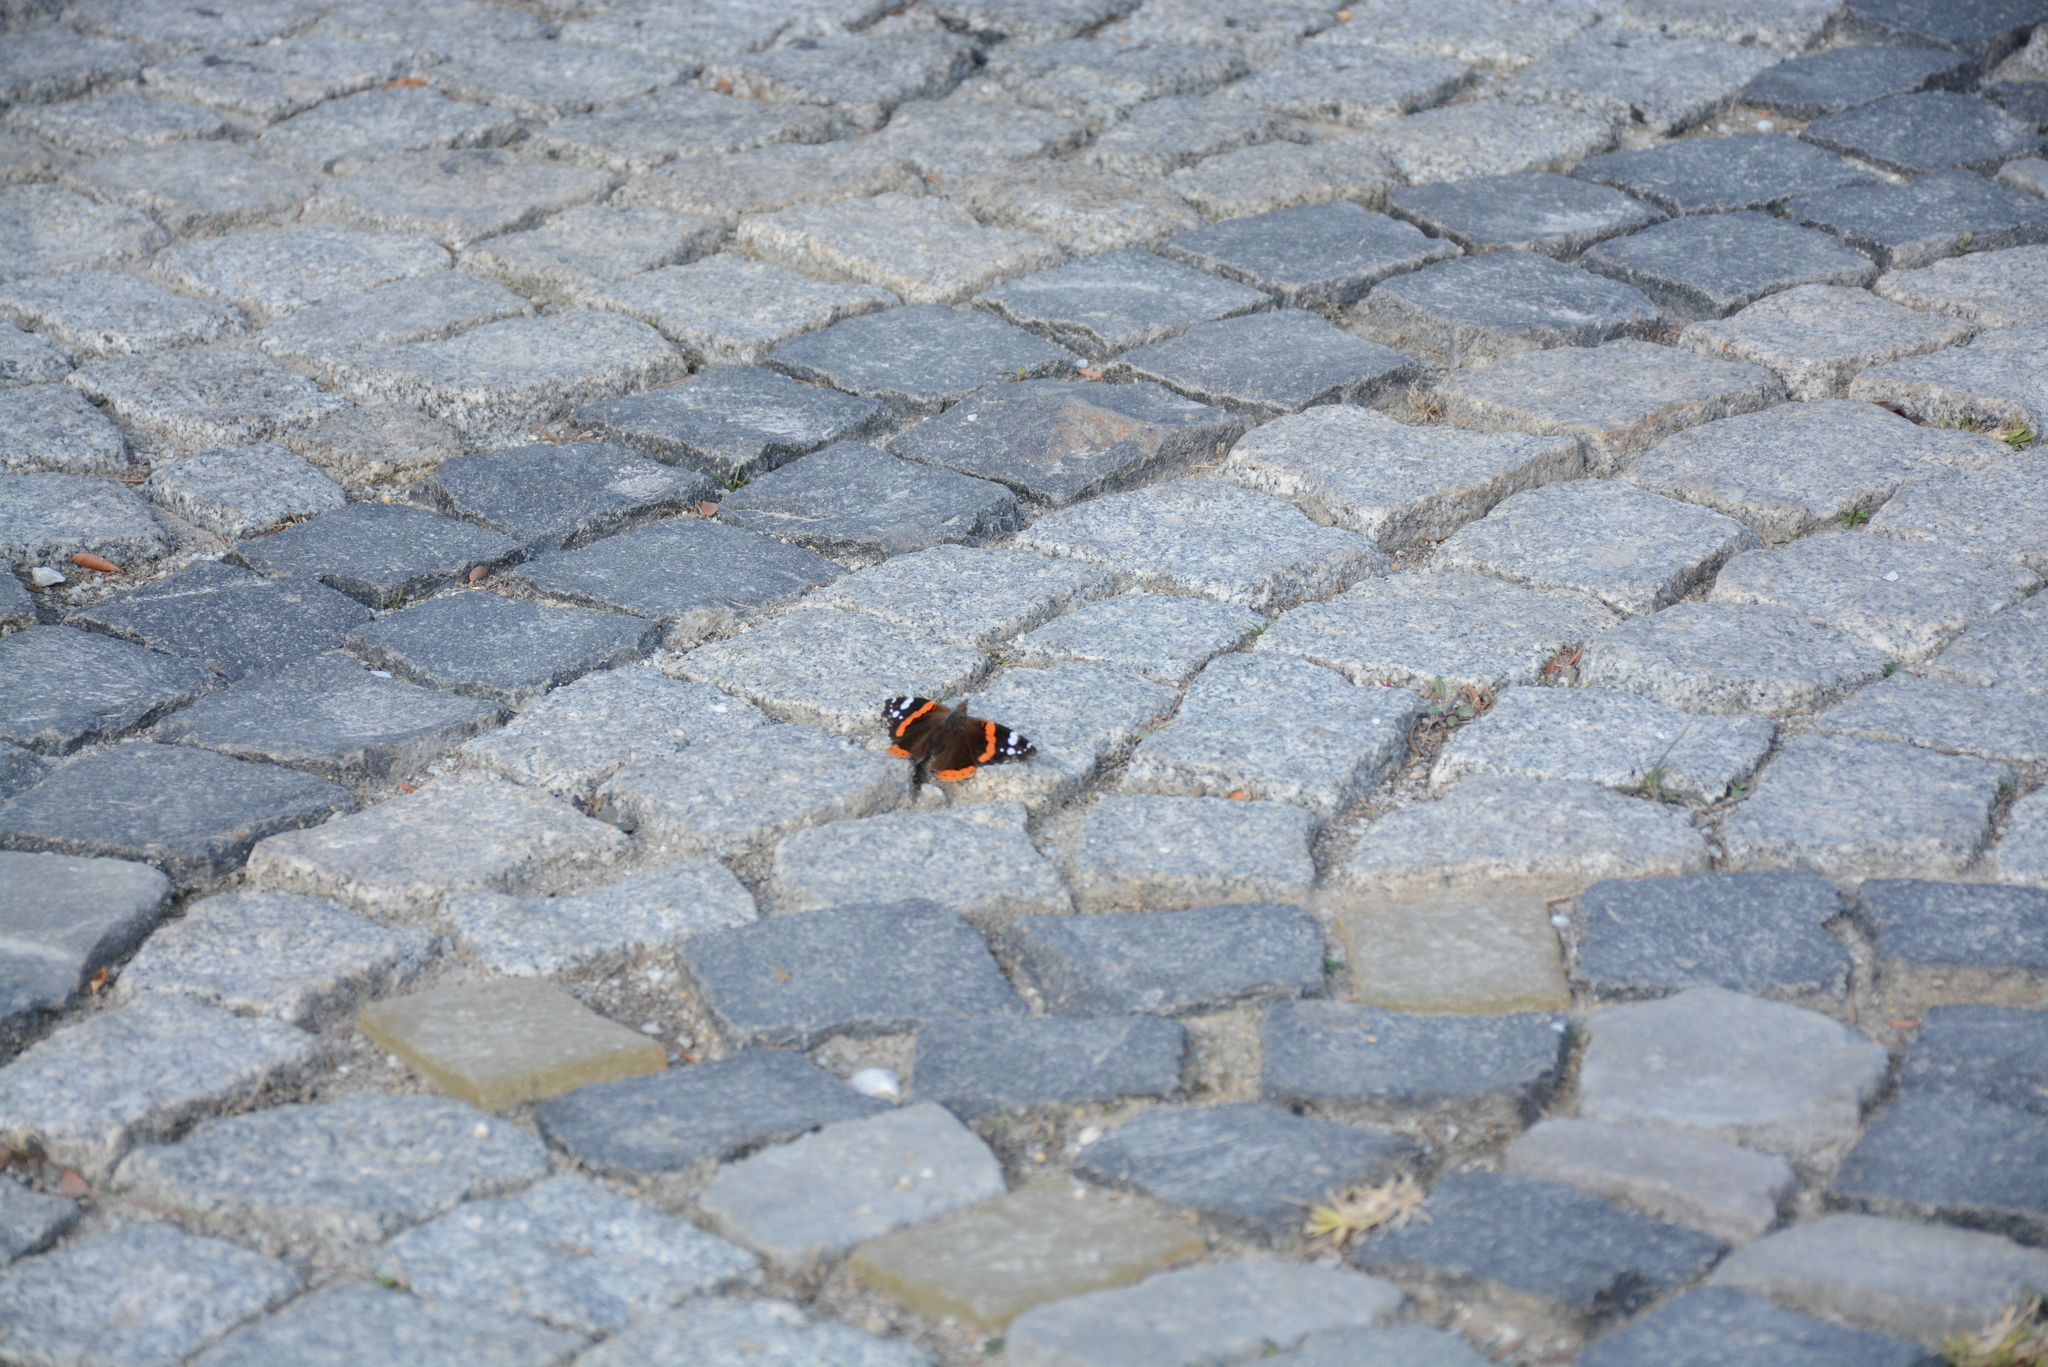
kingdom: Animalia
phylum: Arthropoda
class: Insecta
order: Lepidoptera
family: Nymphalidae
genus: Vanessa
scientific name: Vanessa atalanta
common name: Red admiral
